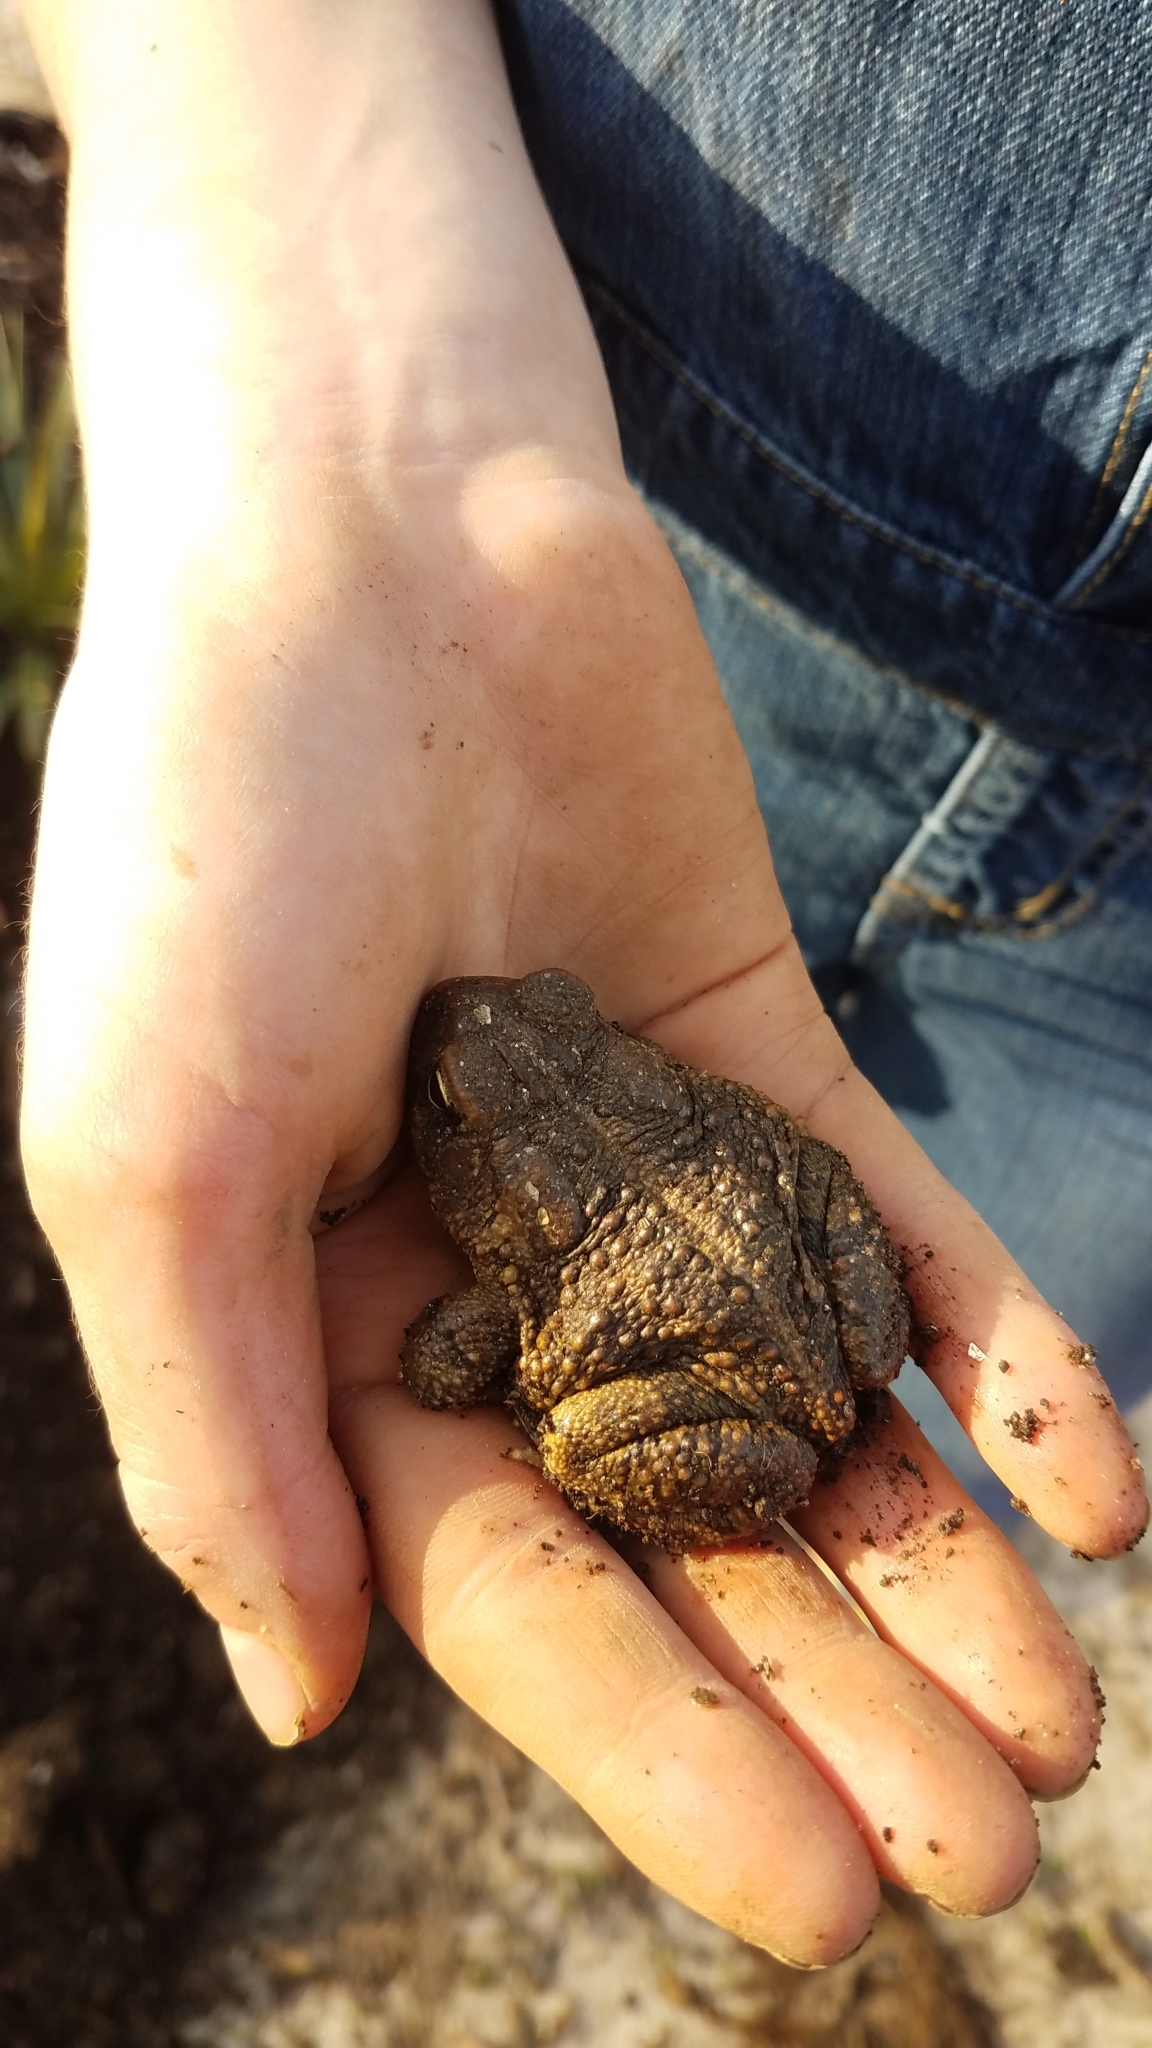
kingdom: Animalia
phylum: Chordata
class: Amphibia
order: Anura
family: Bufonidae
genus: Anaxyrus
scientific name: Anaxyrus fowleri
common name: Fowler's toad
